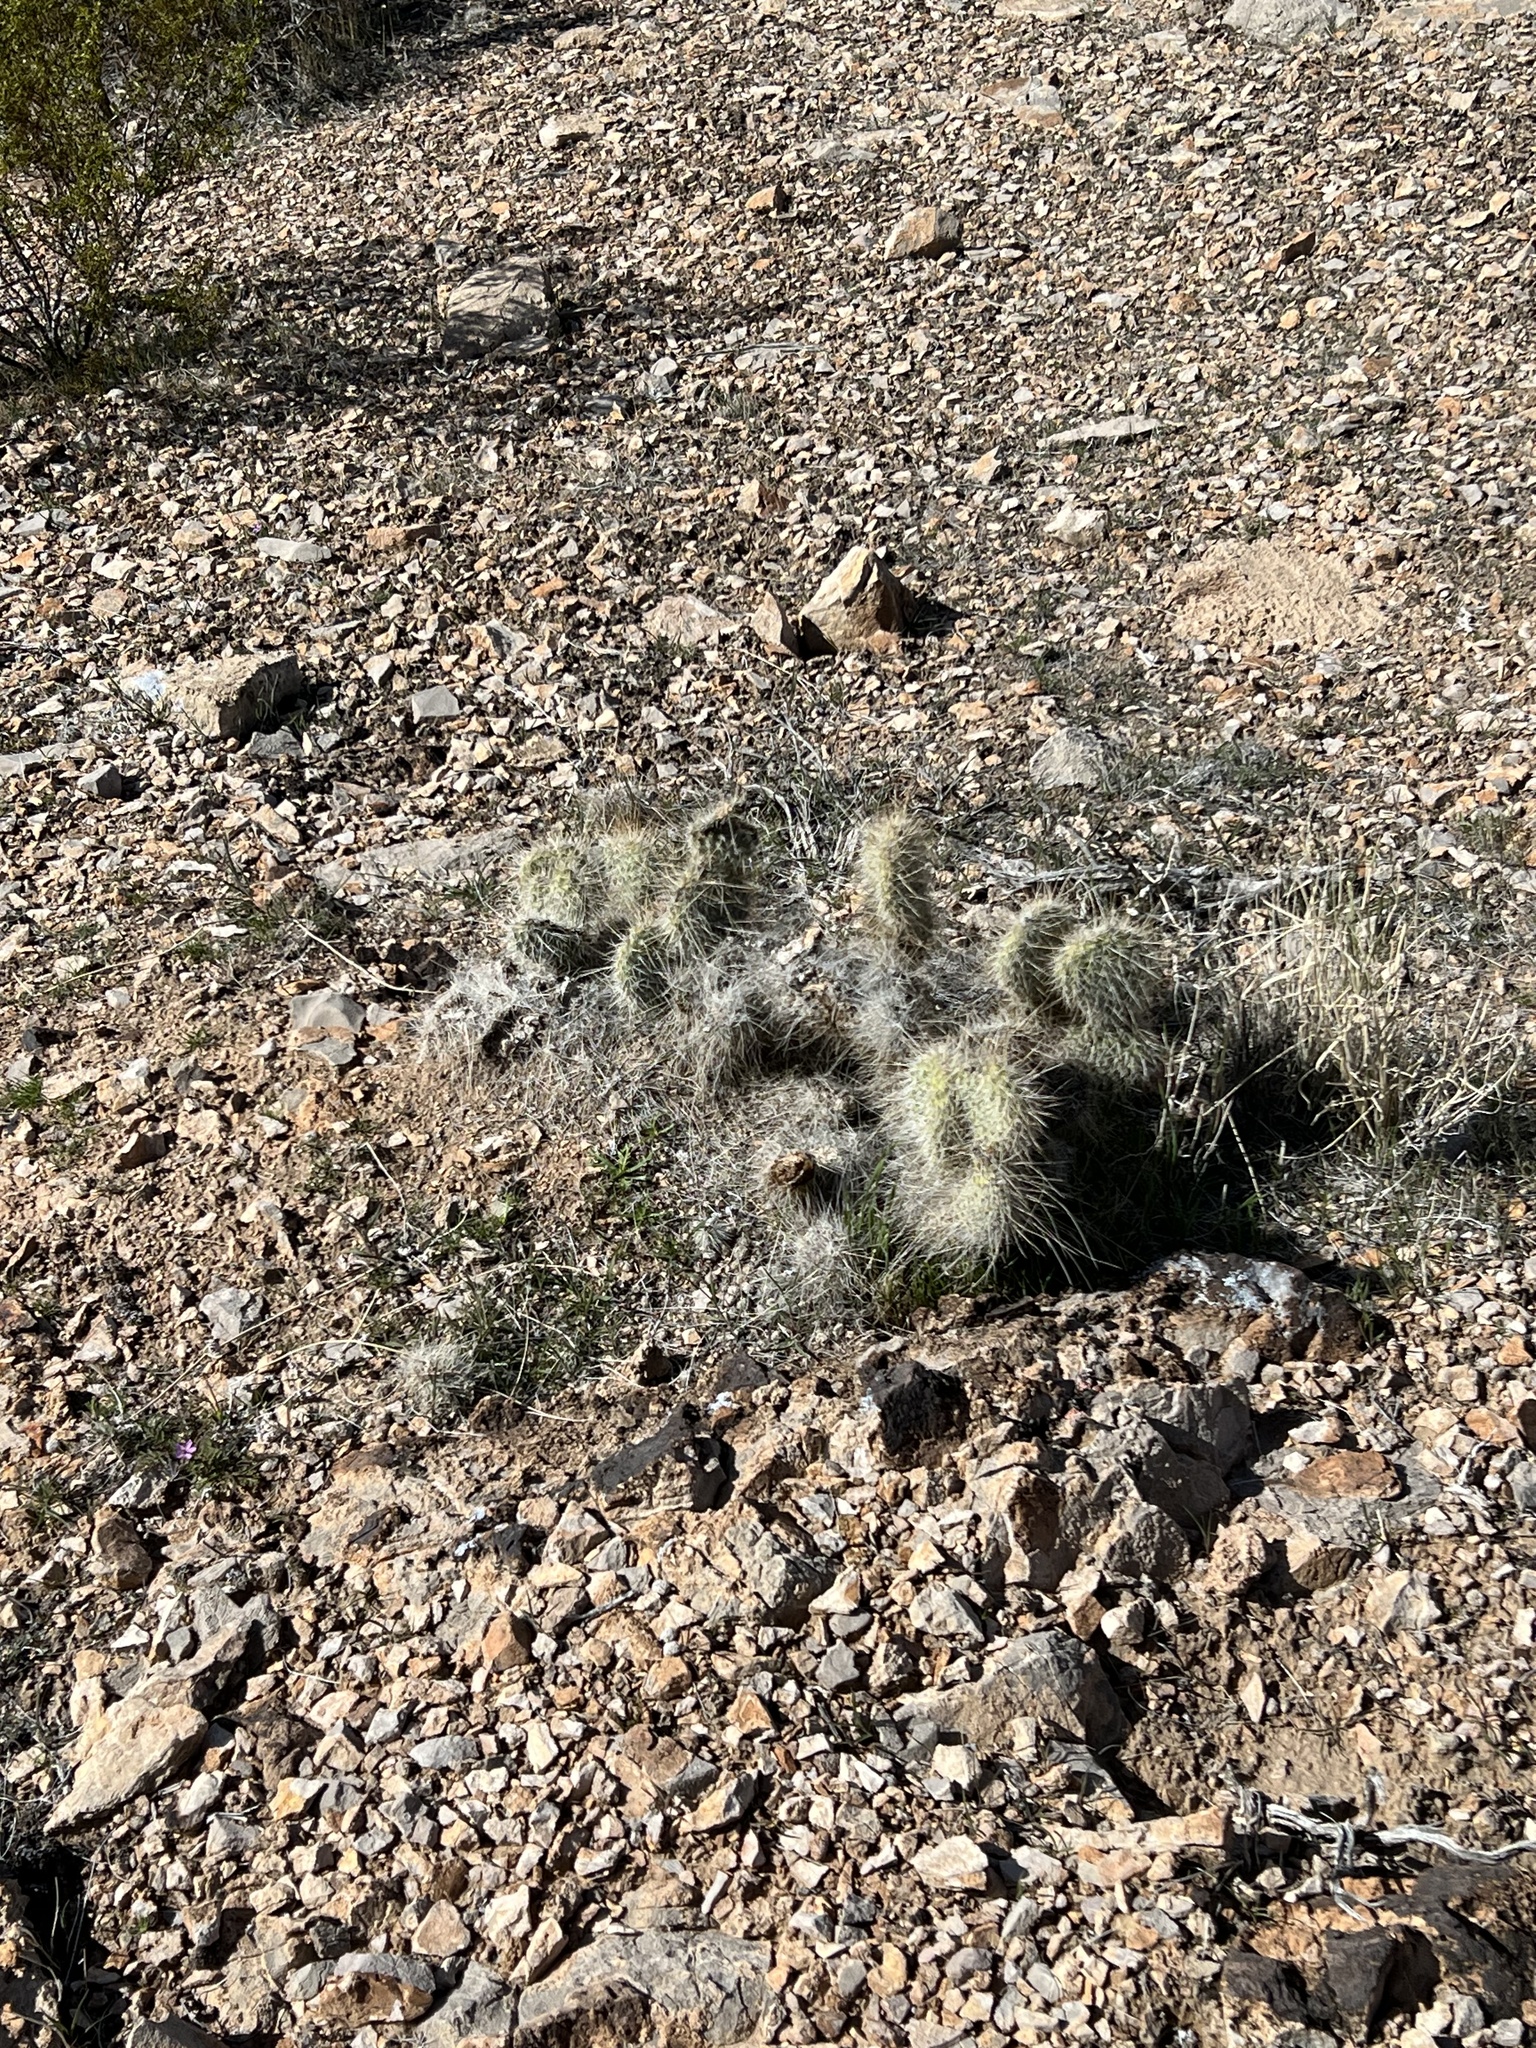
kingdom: Plantae
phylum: Tracheophyta
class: Magnoliopsida
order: Caryophyllales
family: Cactaceae
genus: Opuntia
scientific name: Opuntia polyacantha
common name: Plains prickly-pear
